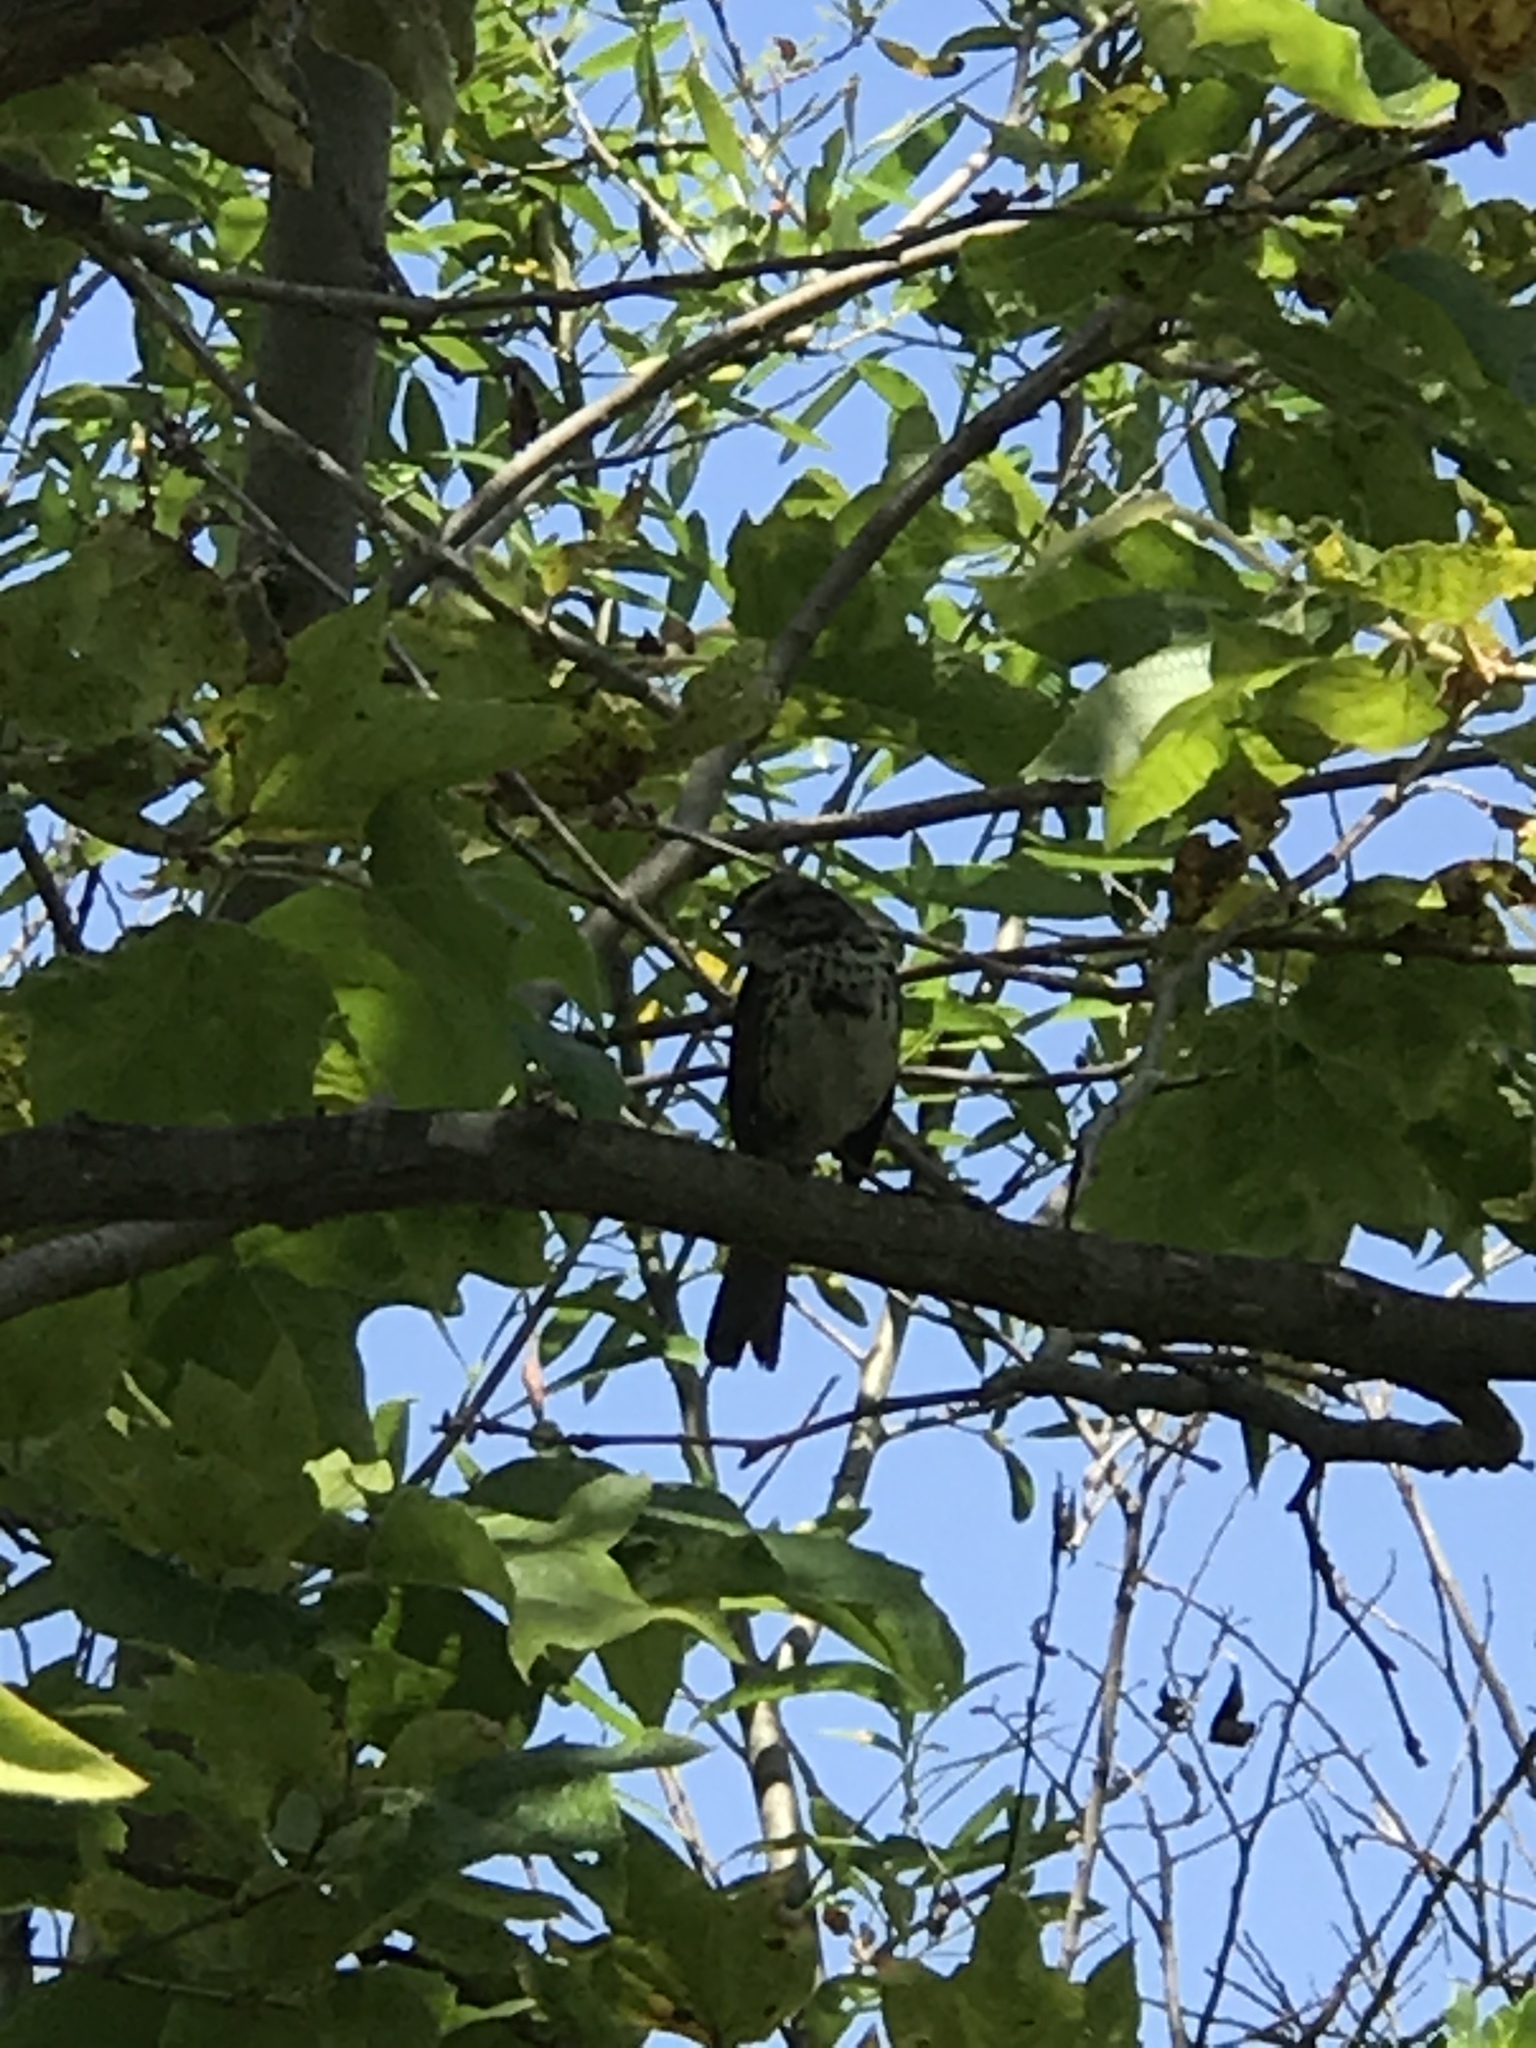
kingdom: Animalia
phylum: Chordata
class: Aves
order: Passeriformes
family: Passerellidae
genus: Melospiza
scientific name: Melospiza melodia
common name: Song sparrow
